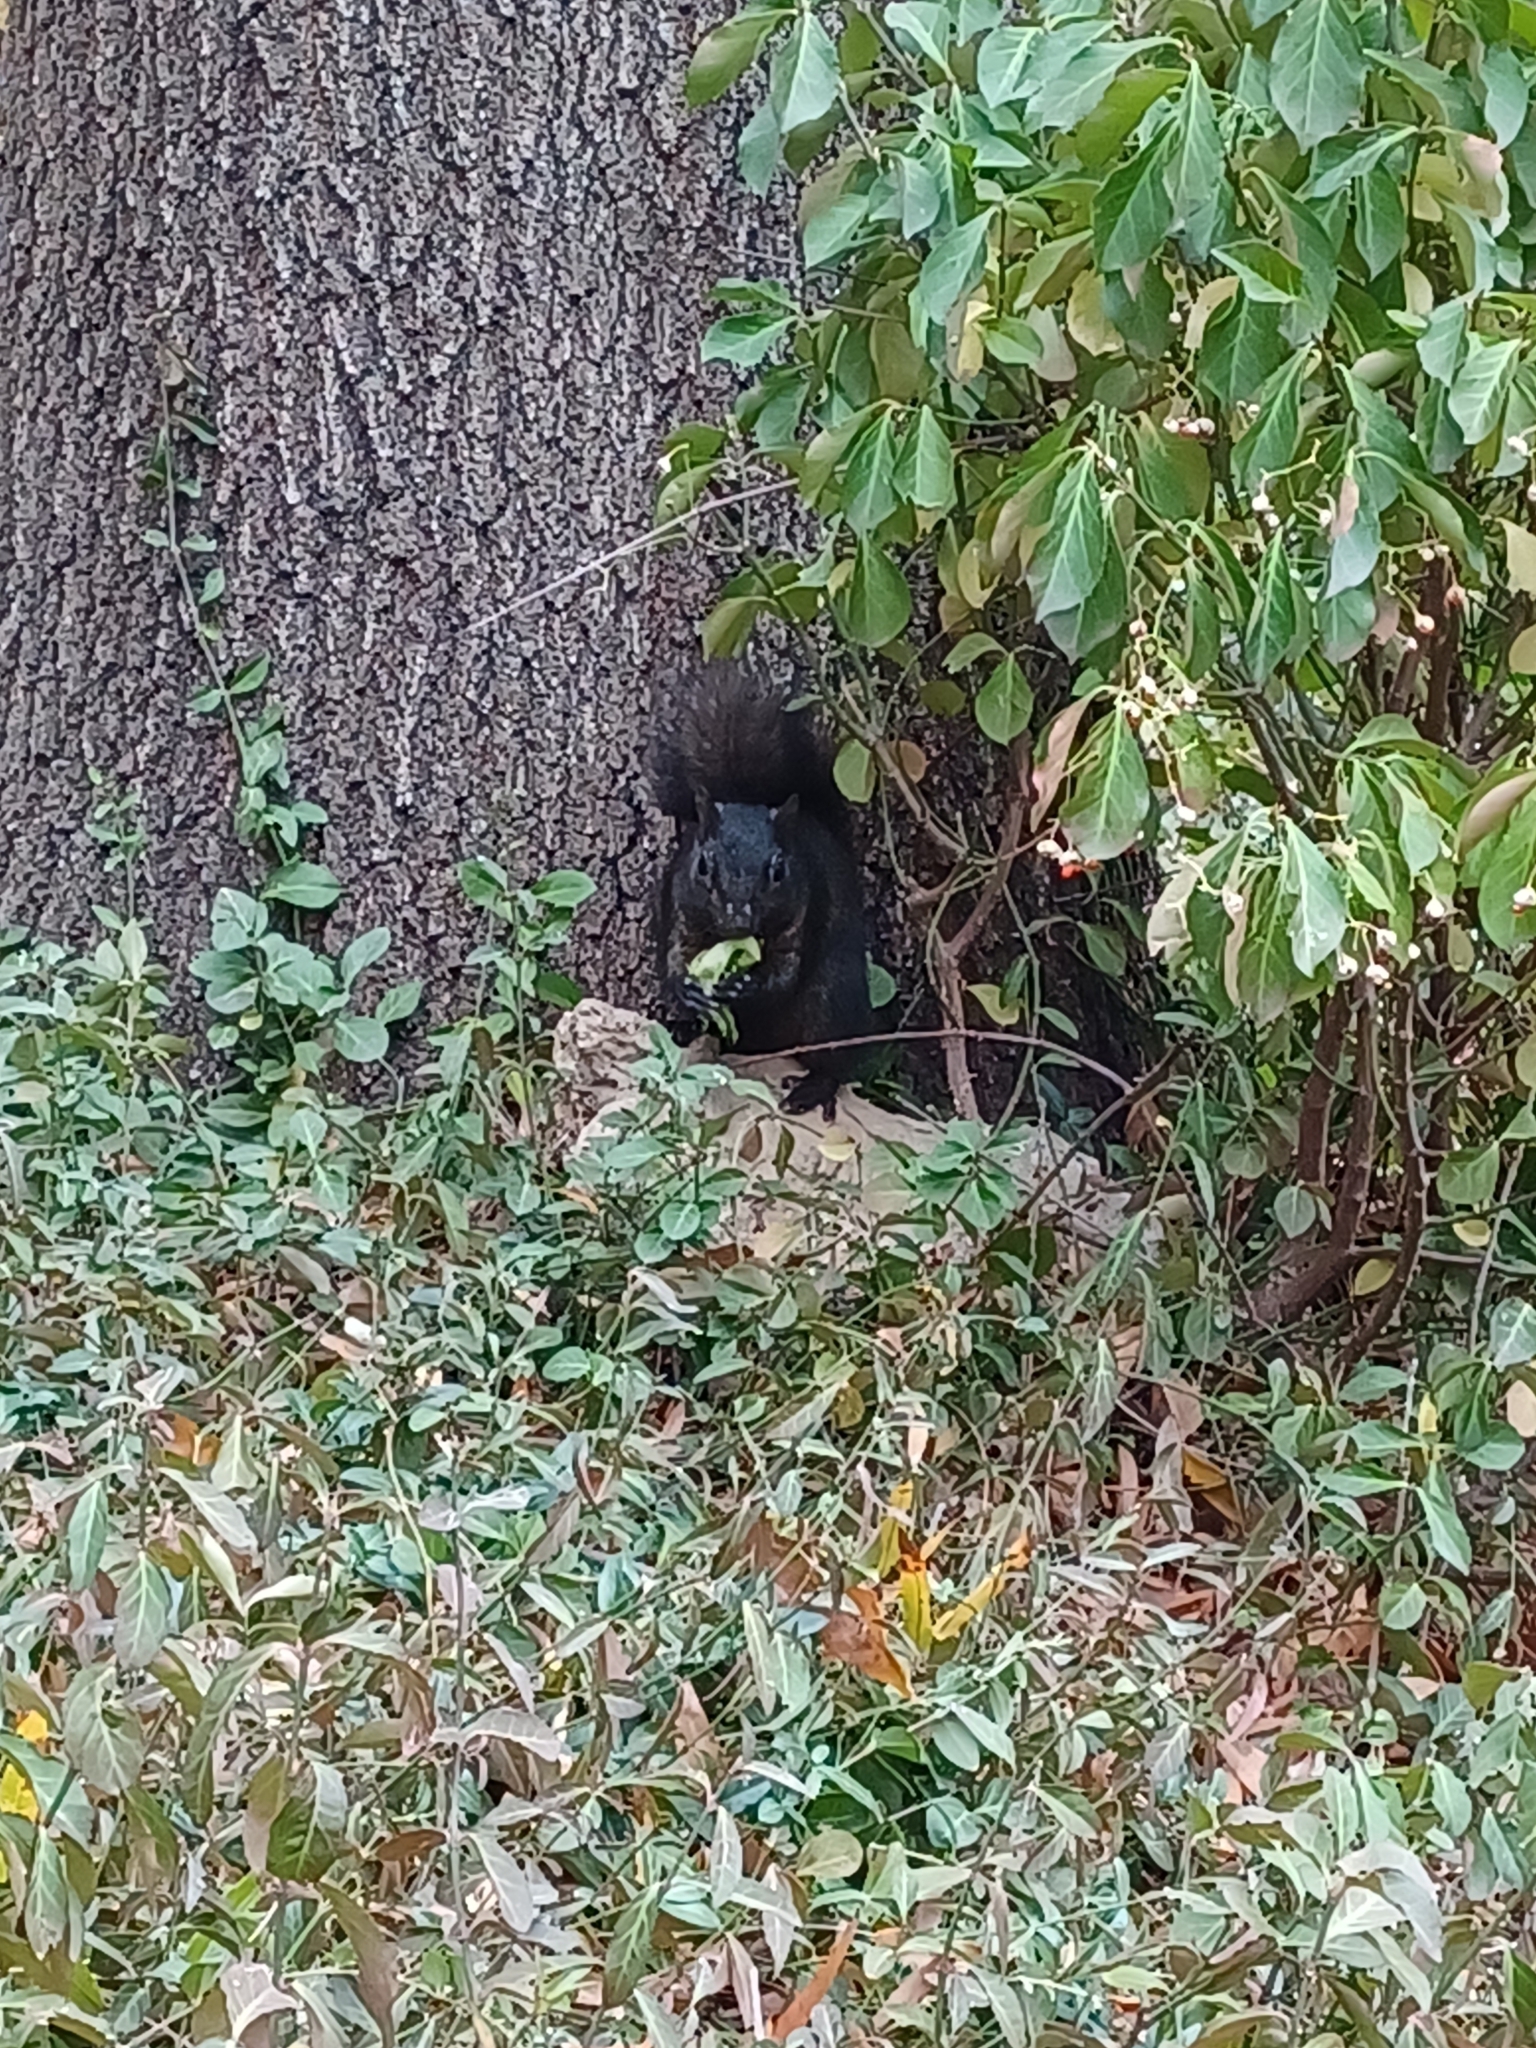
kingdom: Animalia
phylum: Chordata
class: Mammalia
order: Rodentia
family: Sciuridae
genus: Sciurus
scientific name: Sciurus carolinensis
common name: Eastern gray squirrel
